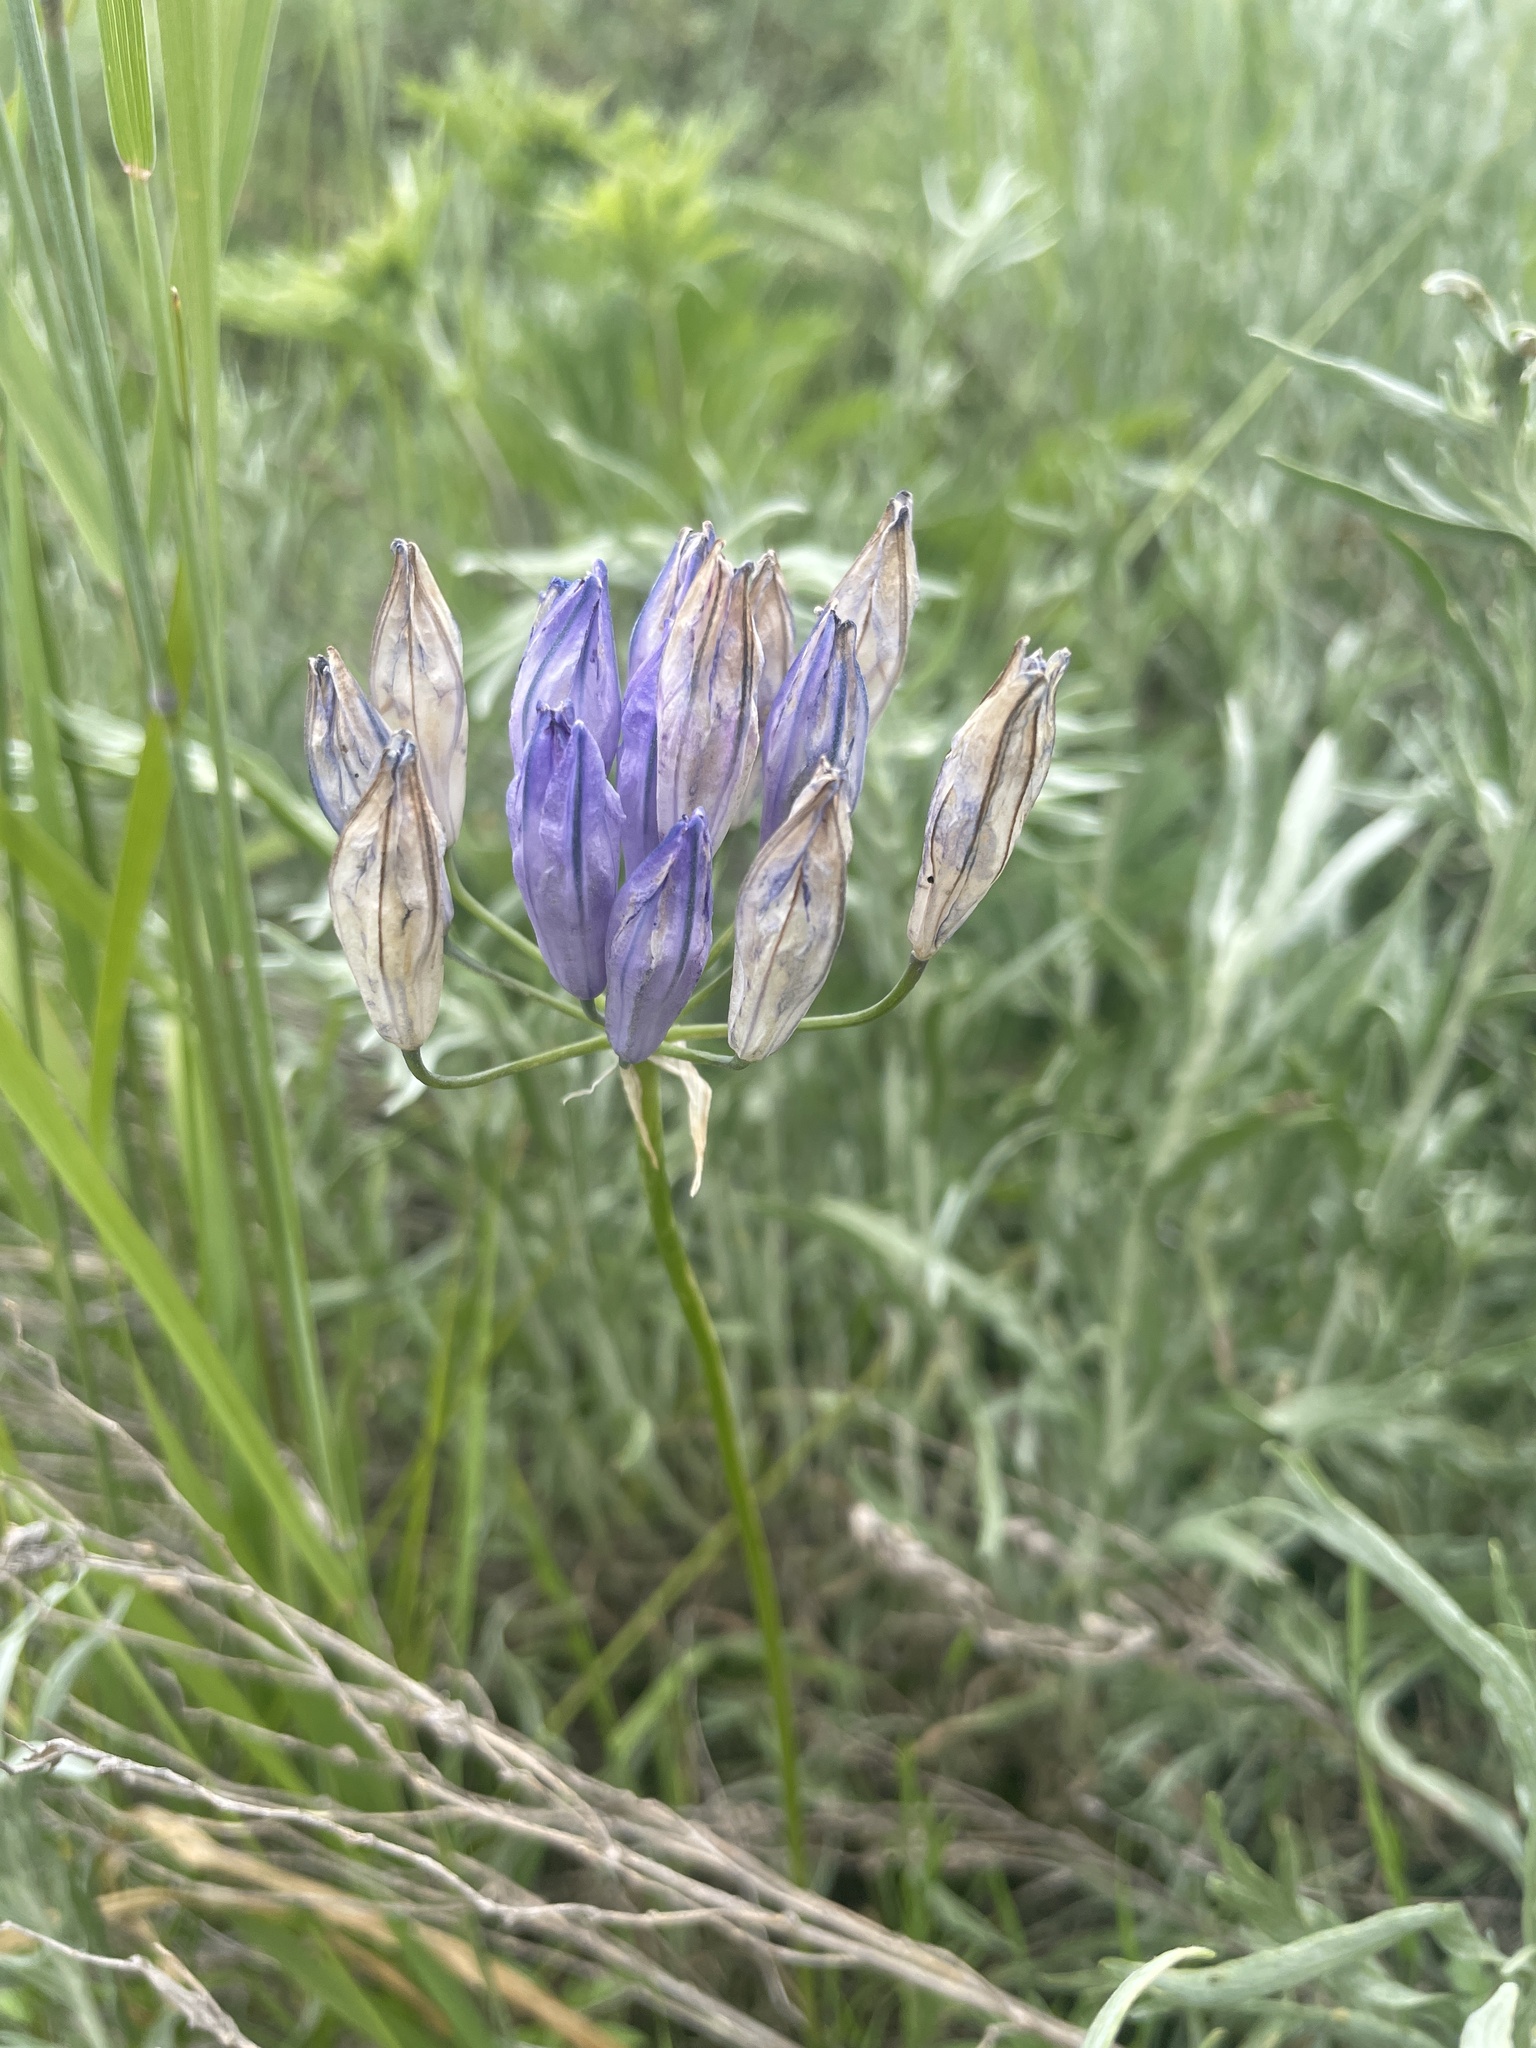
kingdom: Plantae
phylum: Tracheophyta
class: Liliopsida
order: Asparagales
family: Asparagaceae
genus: Triteleia
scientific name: Triteleia grandiflora
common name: Wild hyacinth
